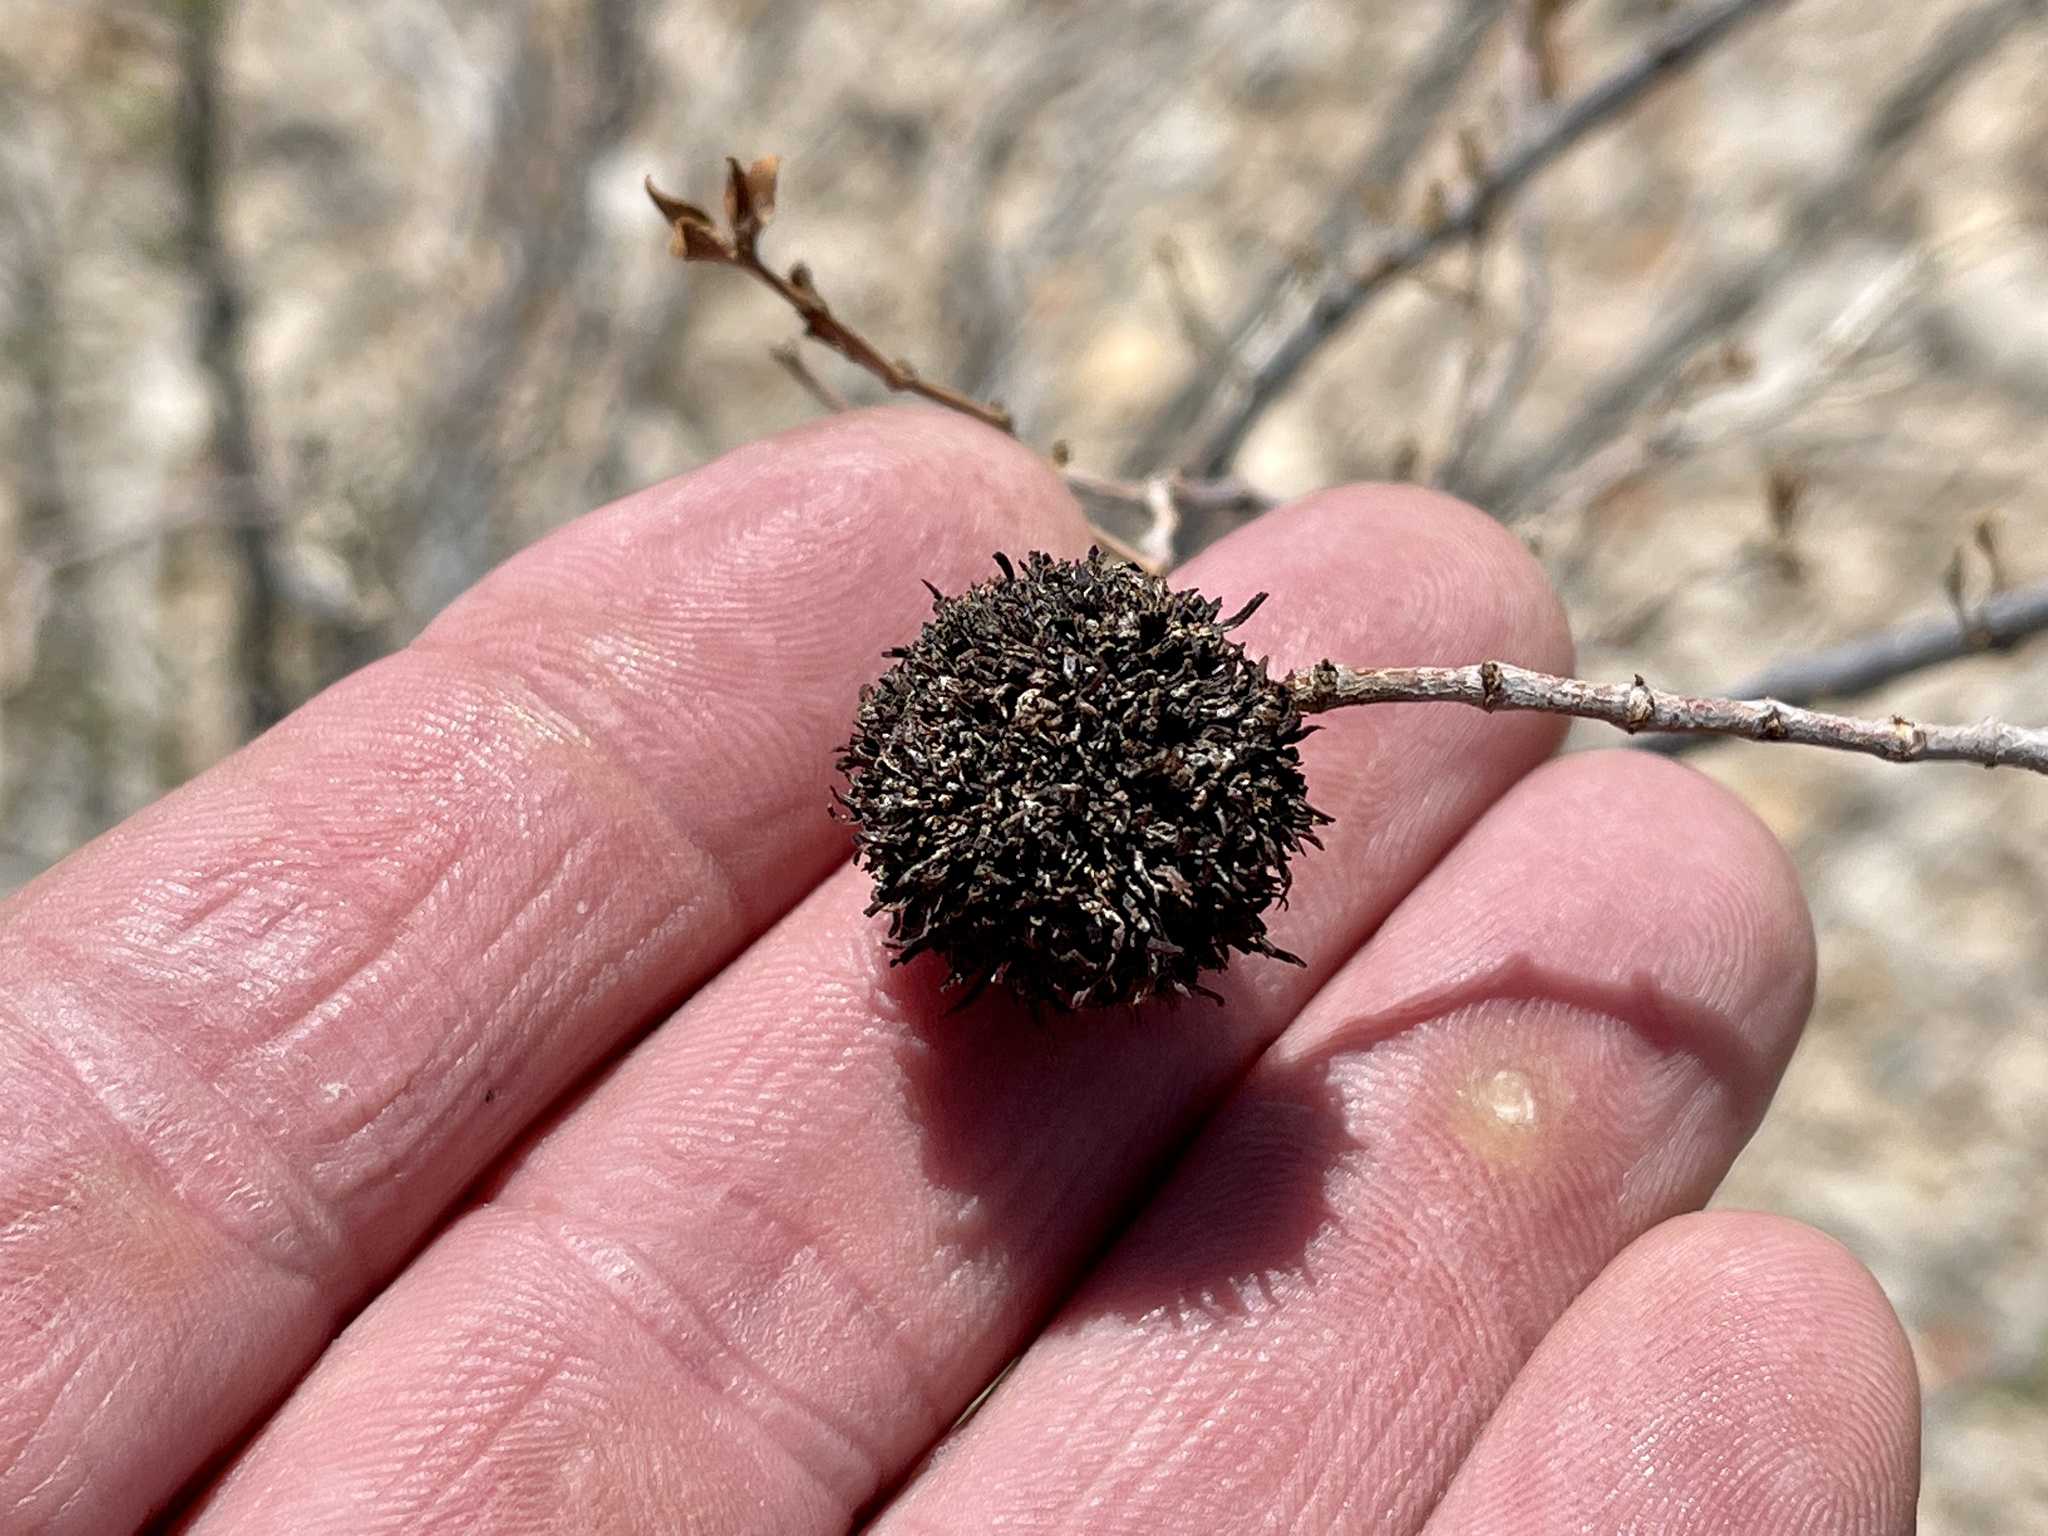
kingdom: Animalia
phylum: Arthropoda
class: Insecta
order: Diptera
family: Cecidomyiidae
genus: Asphondylia
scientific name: Asphondylia auripila
